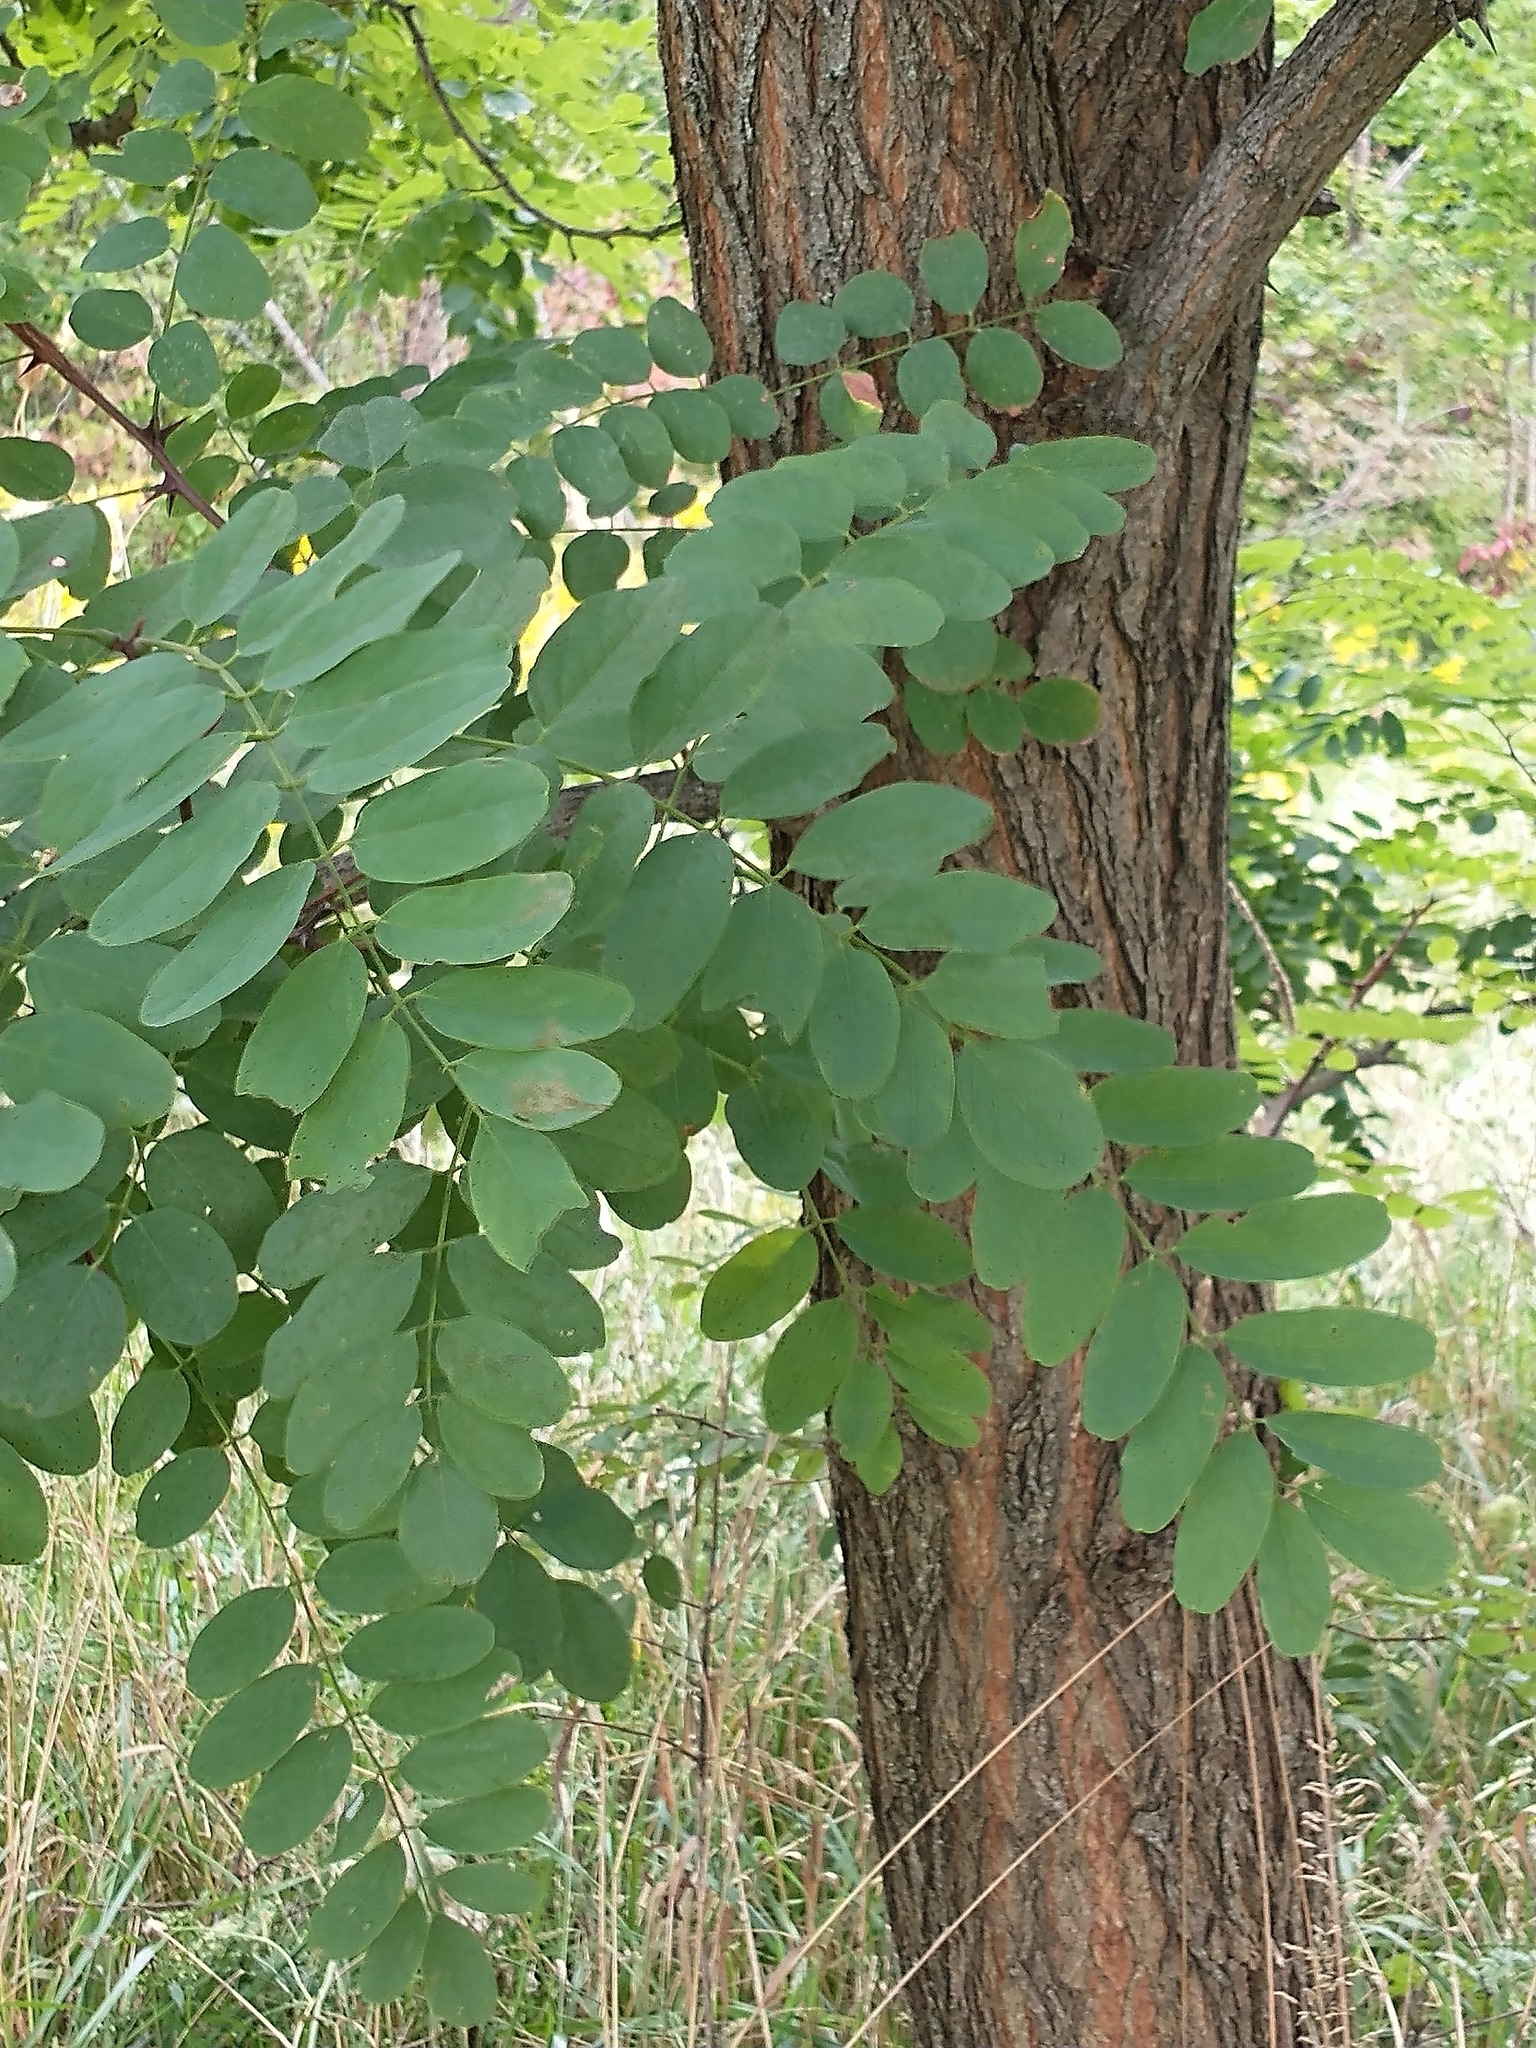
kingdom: Plantae
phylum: Tracheophyta
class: Magnoliopsida
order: Fabales
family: Fabaceae
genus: Robinia
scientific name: Robinia pseudoacacia
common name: Black locust
